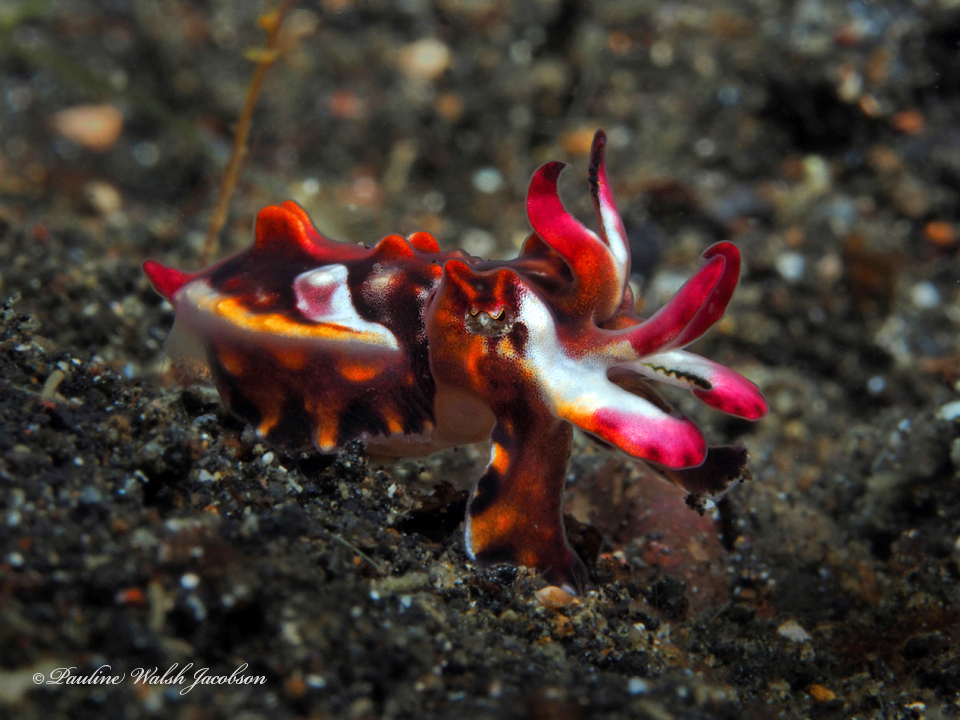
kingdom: Animalia
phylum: Mollusca
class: Cephalopoda
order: Sepiida
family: Sepiidae
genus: Ascarosepion
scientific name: Ascarosepion pfefferi
